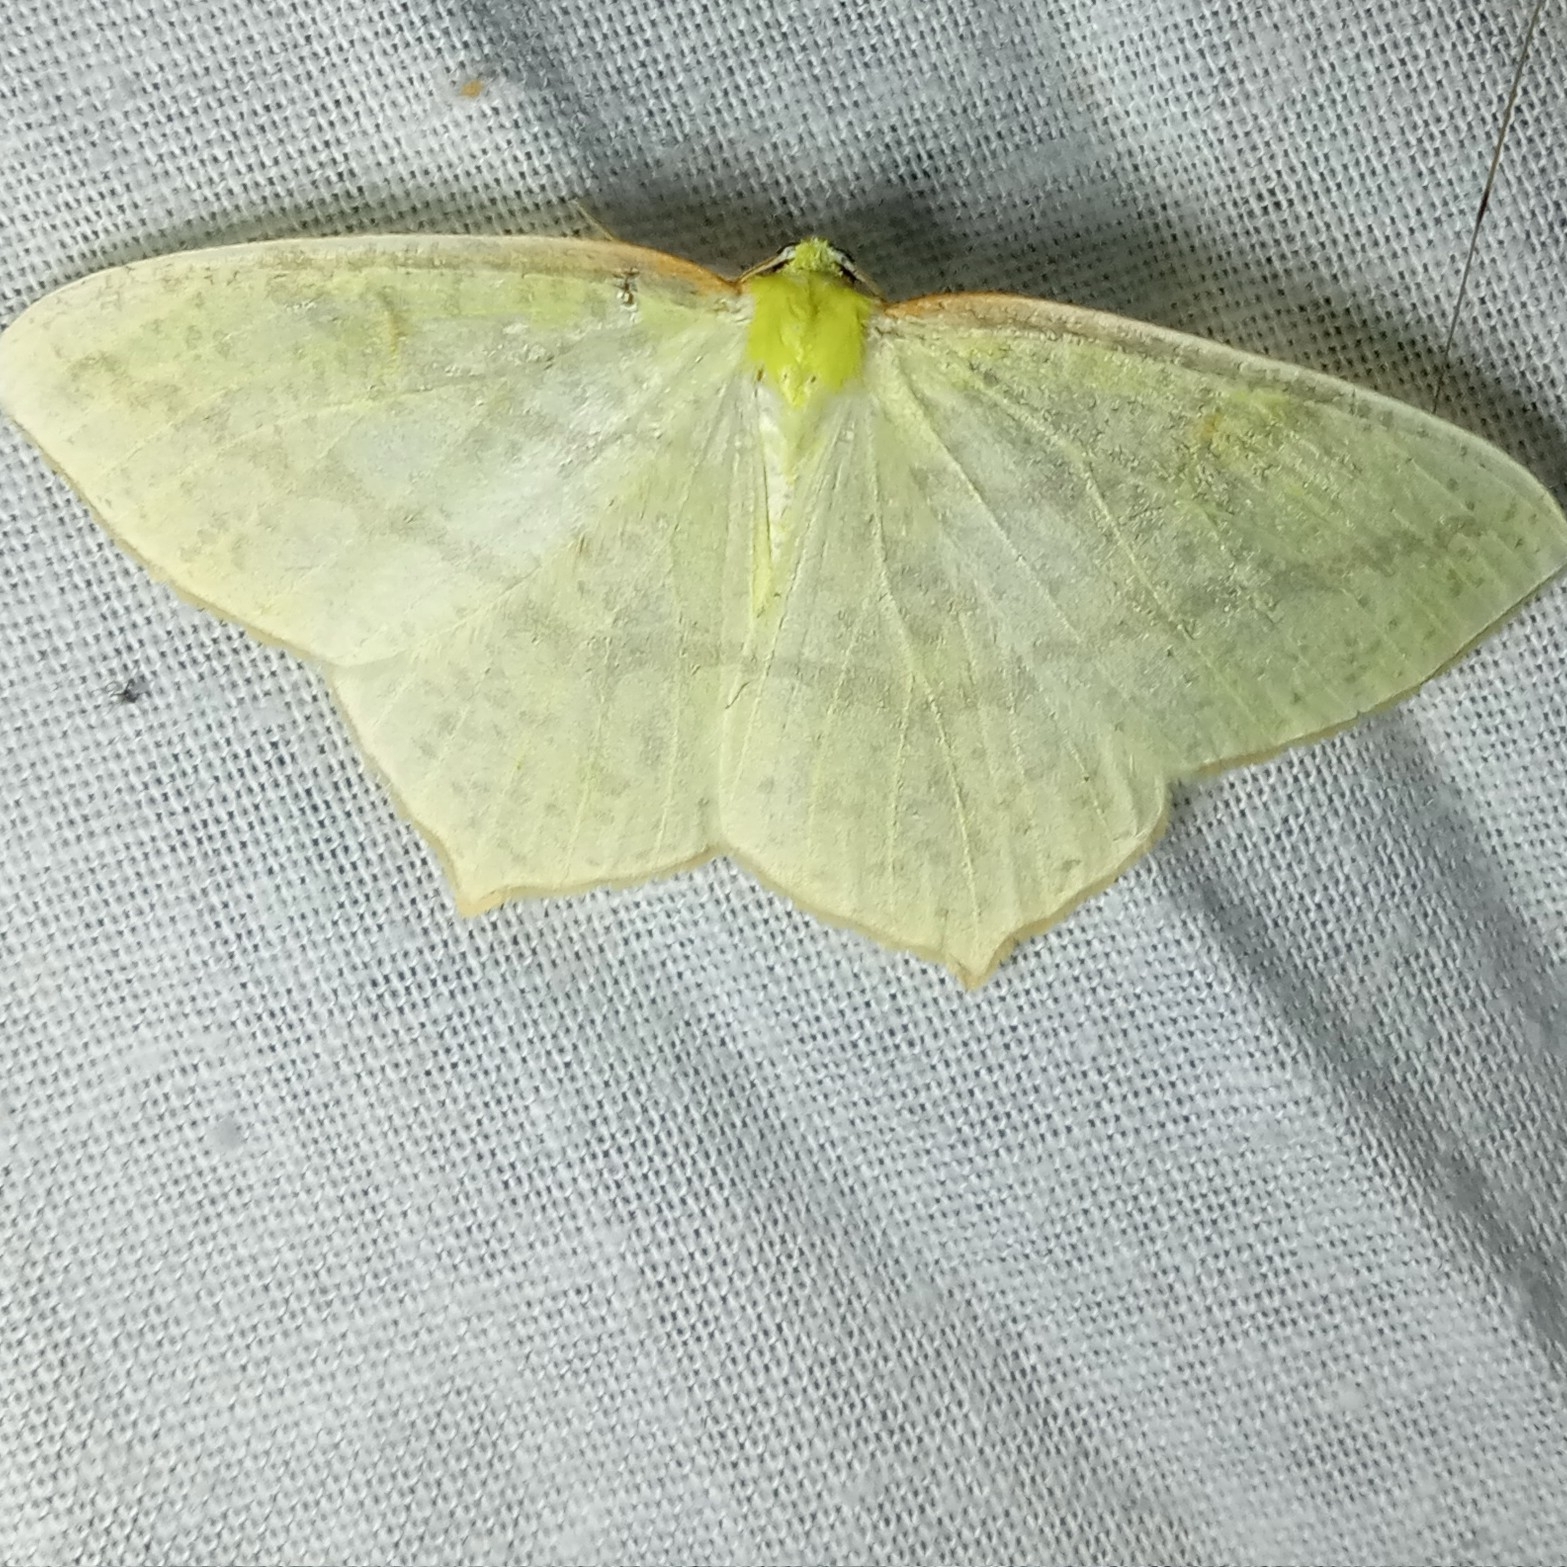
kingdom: Animalia
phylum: Arthropoda
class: Insecta
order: Lepidoptera
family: Geometridae
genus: Sirinopteryx
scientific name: Sirinopteryx rufivinctata
